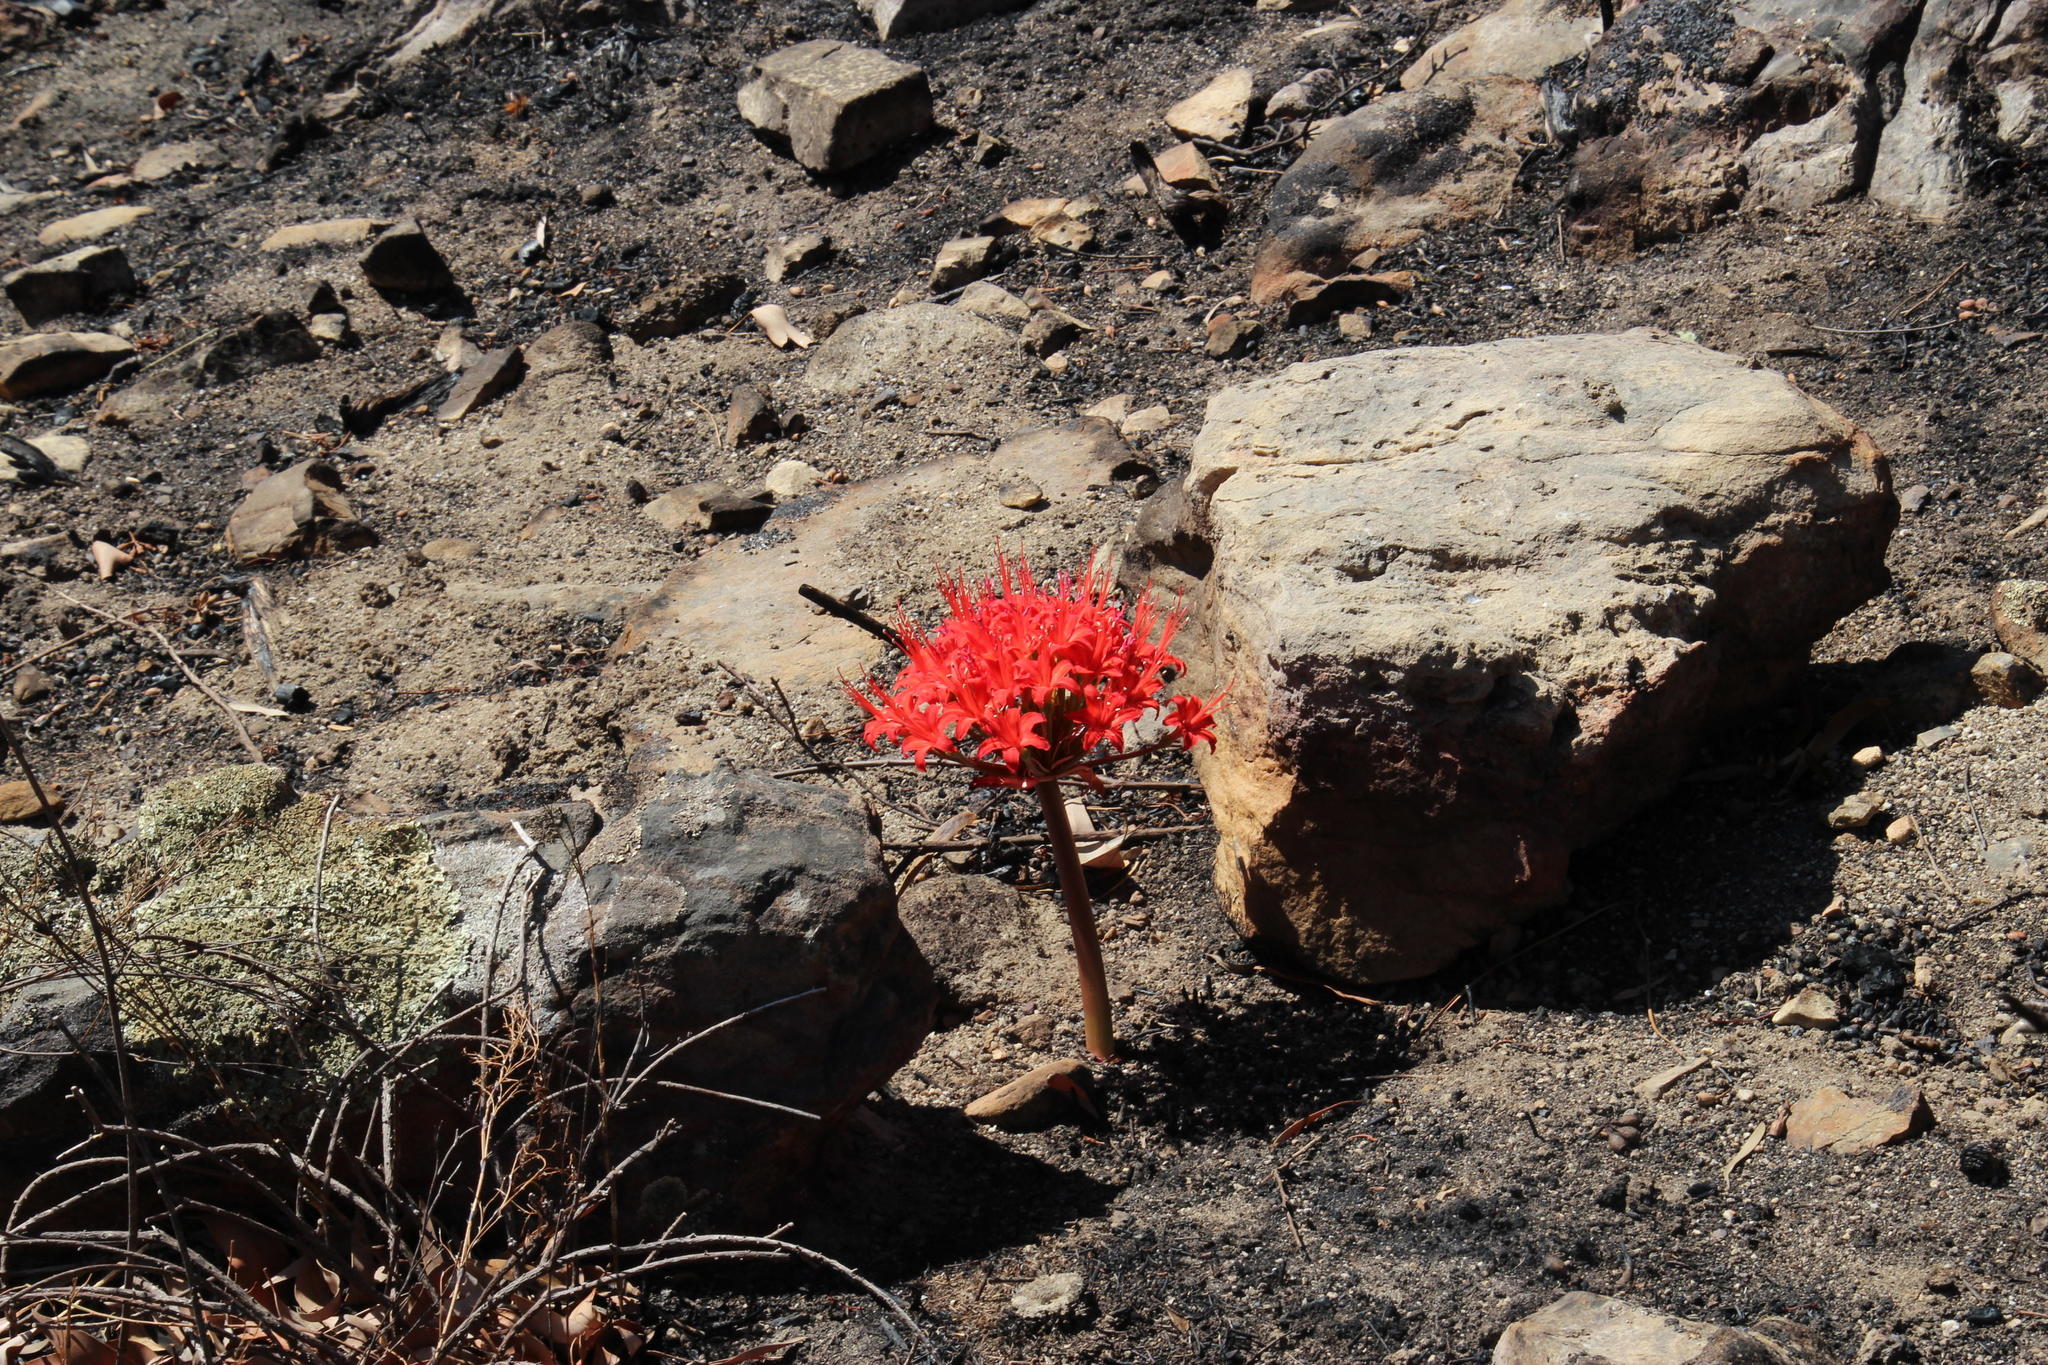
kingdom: Plantae
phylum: Tracheophyta
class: Liliopsida
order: Asparagales
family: Amaryllidaceae
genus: Brunsvigia
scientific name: Brunsvigia marginata
